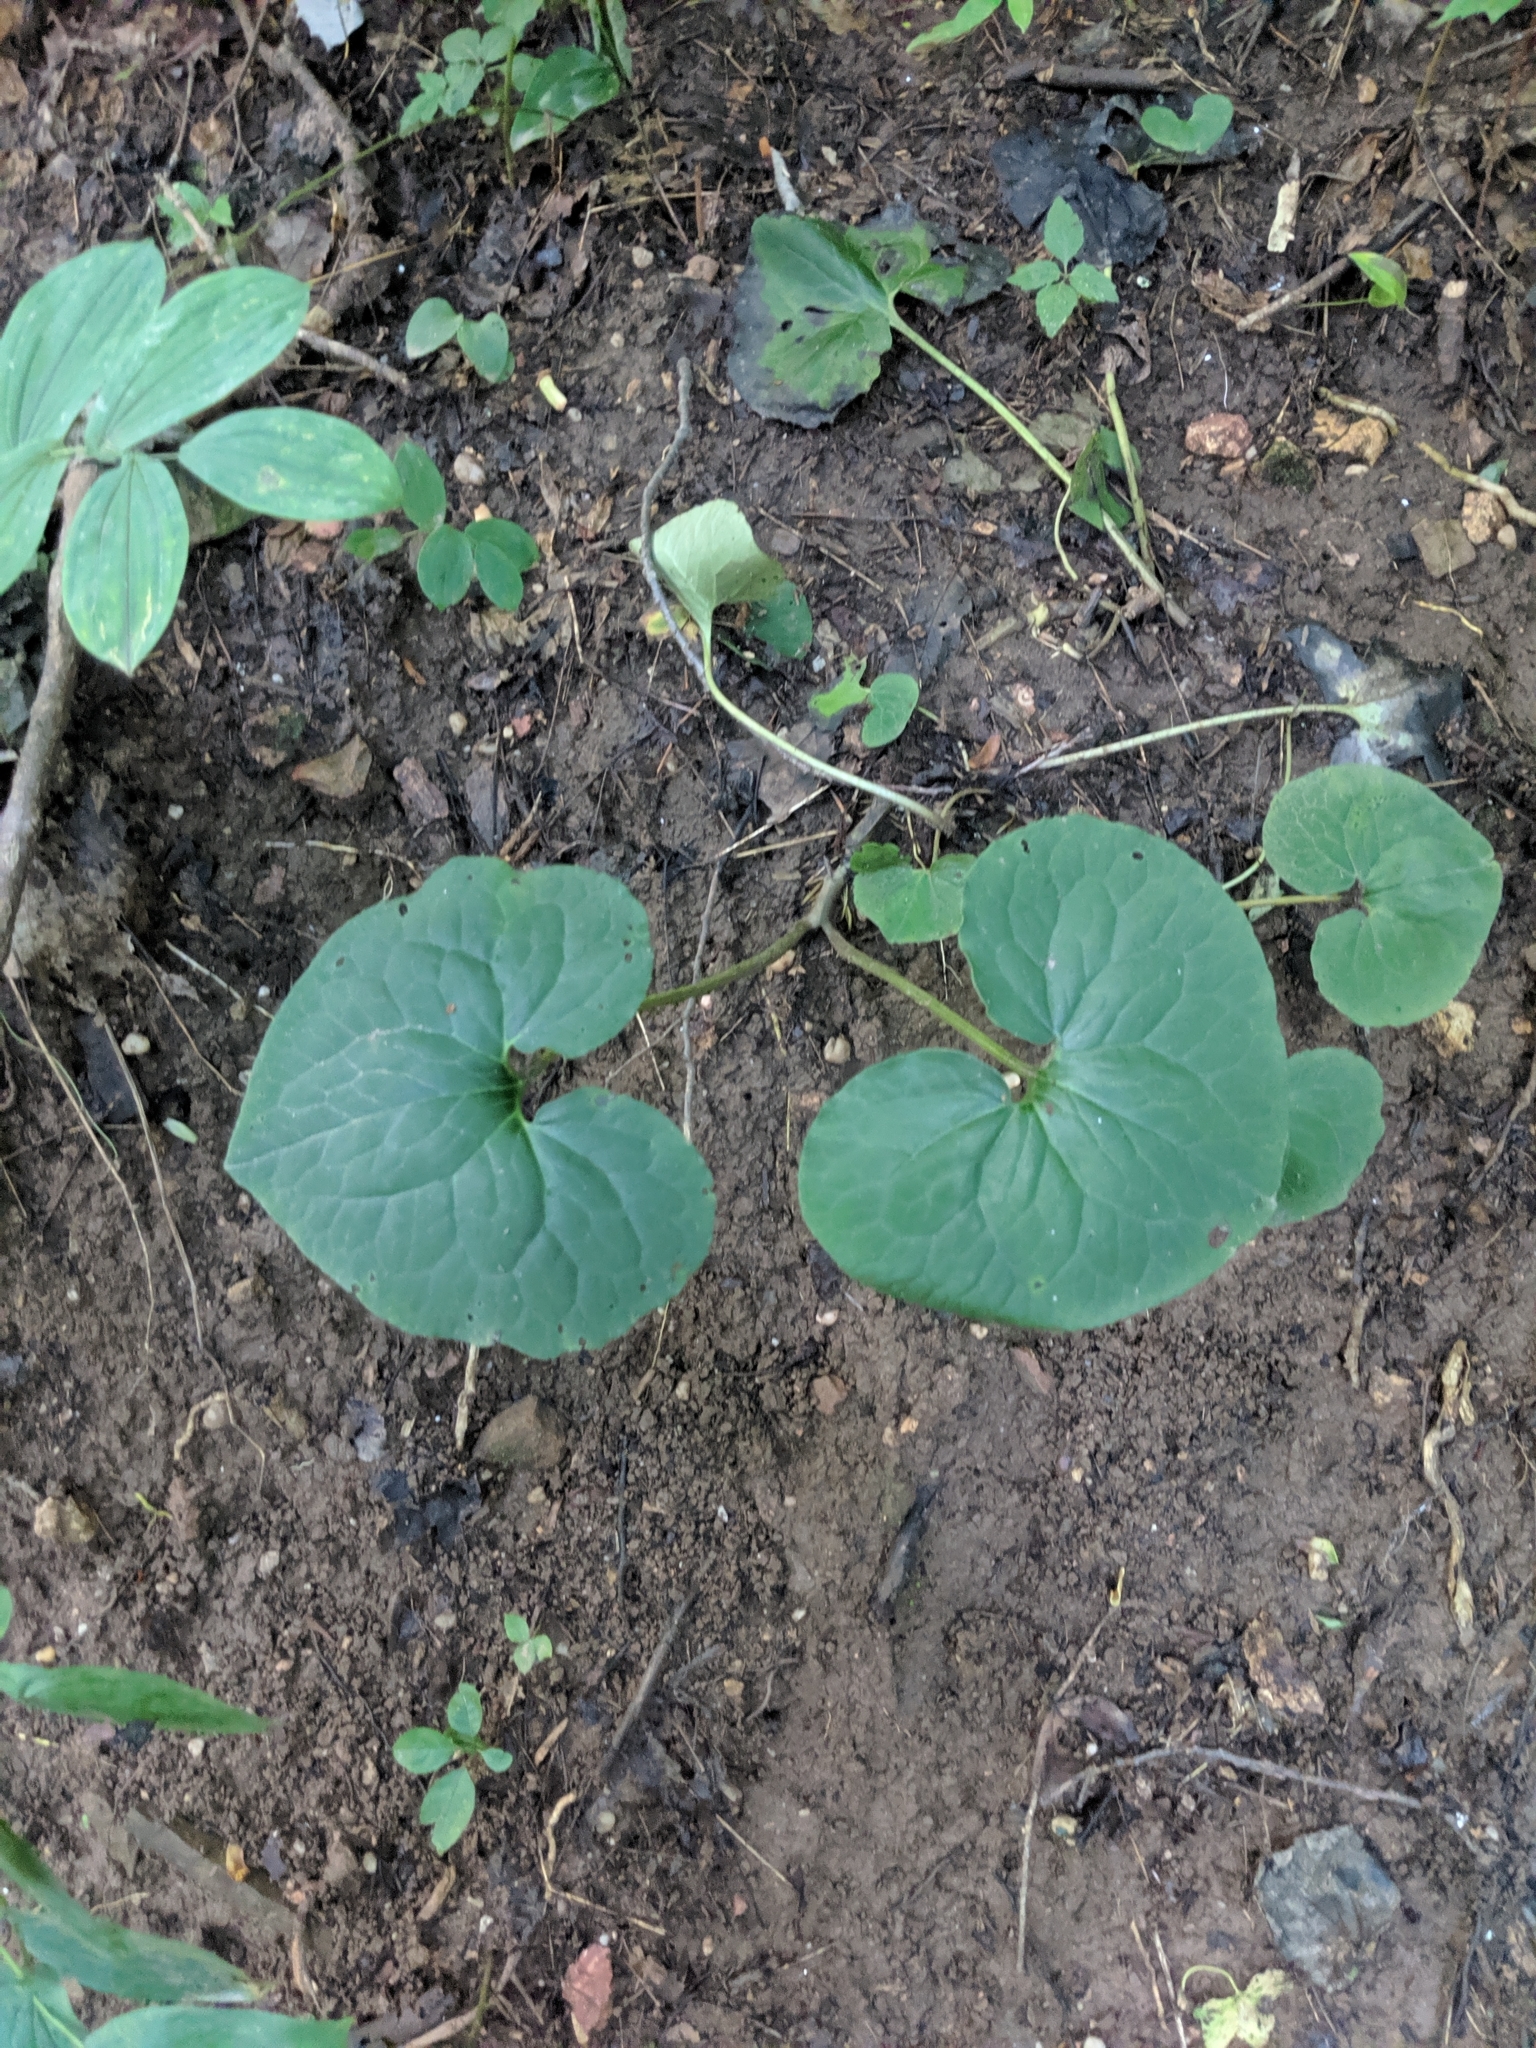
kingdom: Plantae
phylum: Tracheophyta
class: Magnoliopsida
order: Piperales
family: Aristolochiaceae
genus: Asarum
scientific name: Asarum canadense
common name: Wild ginger
